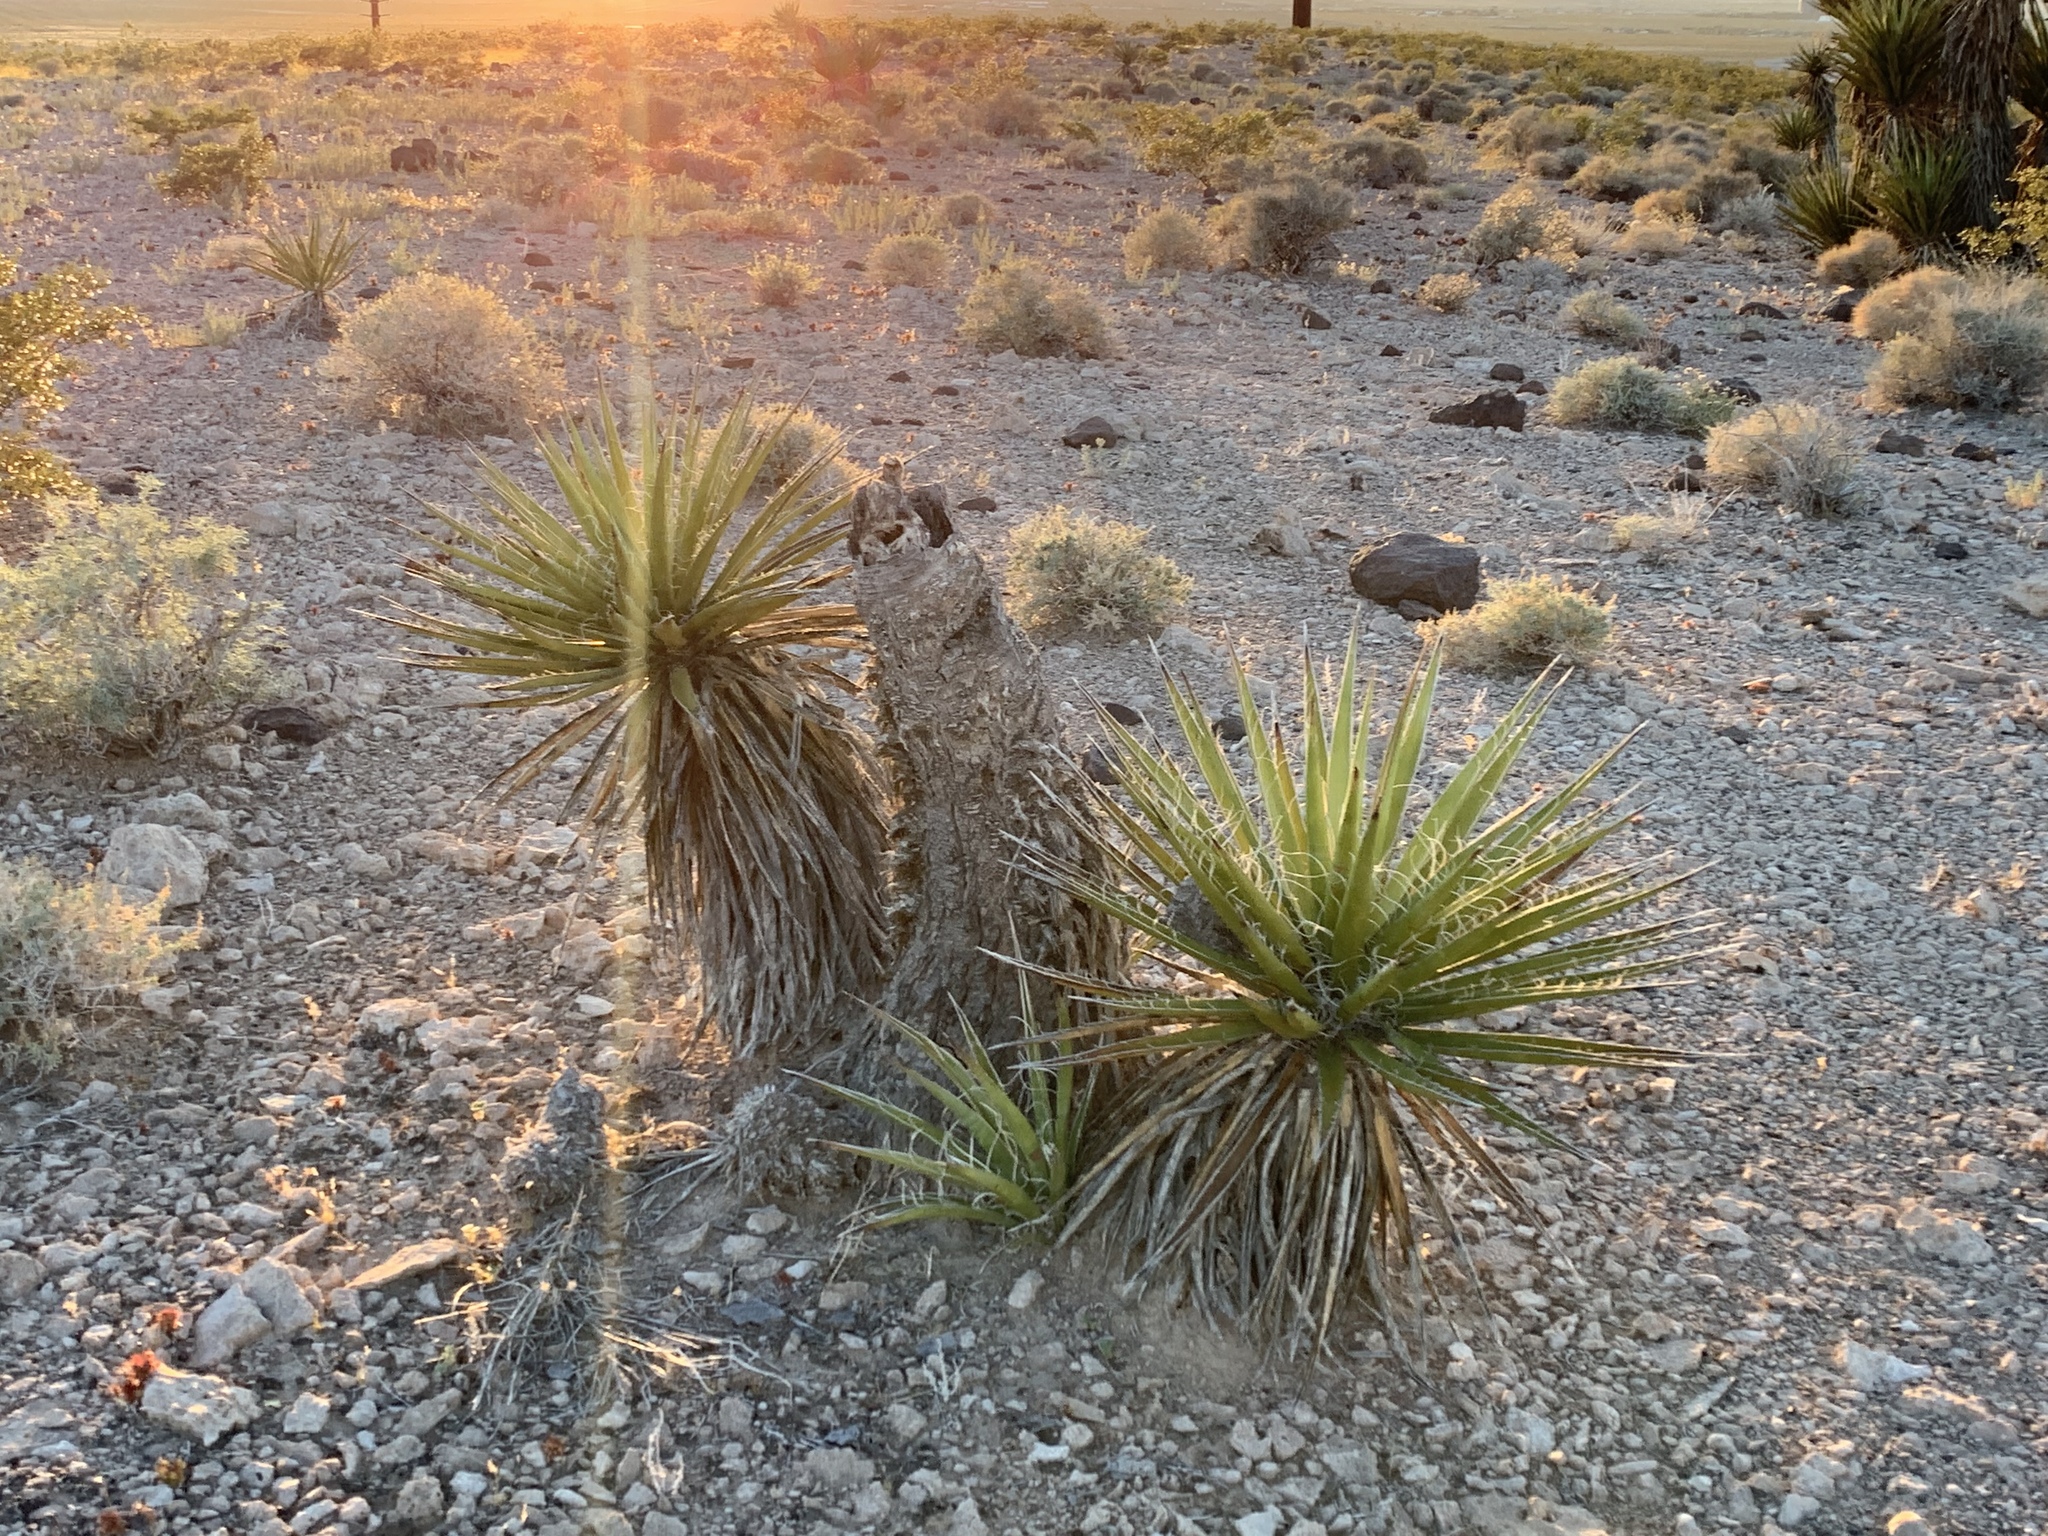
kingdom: Plantae
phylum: Tracheophyta
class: Liliopsida
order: Asparagales
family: Asparagaceae
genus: Yucca
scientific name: Yucca schidigera
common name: Mojave yucca
